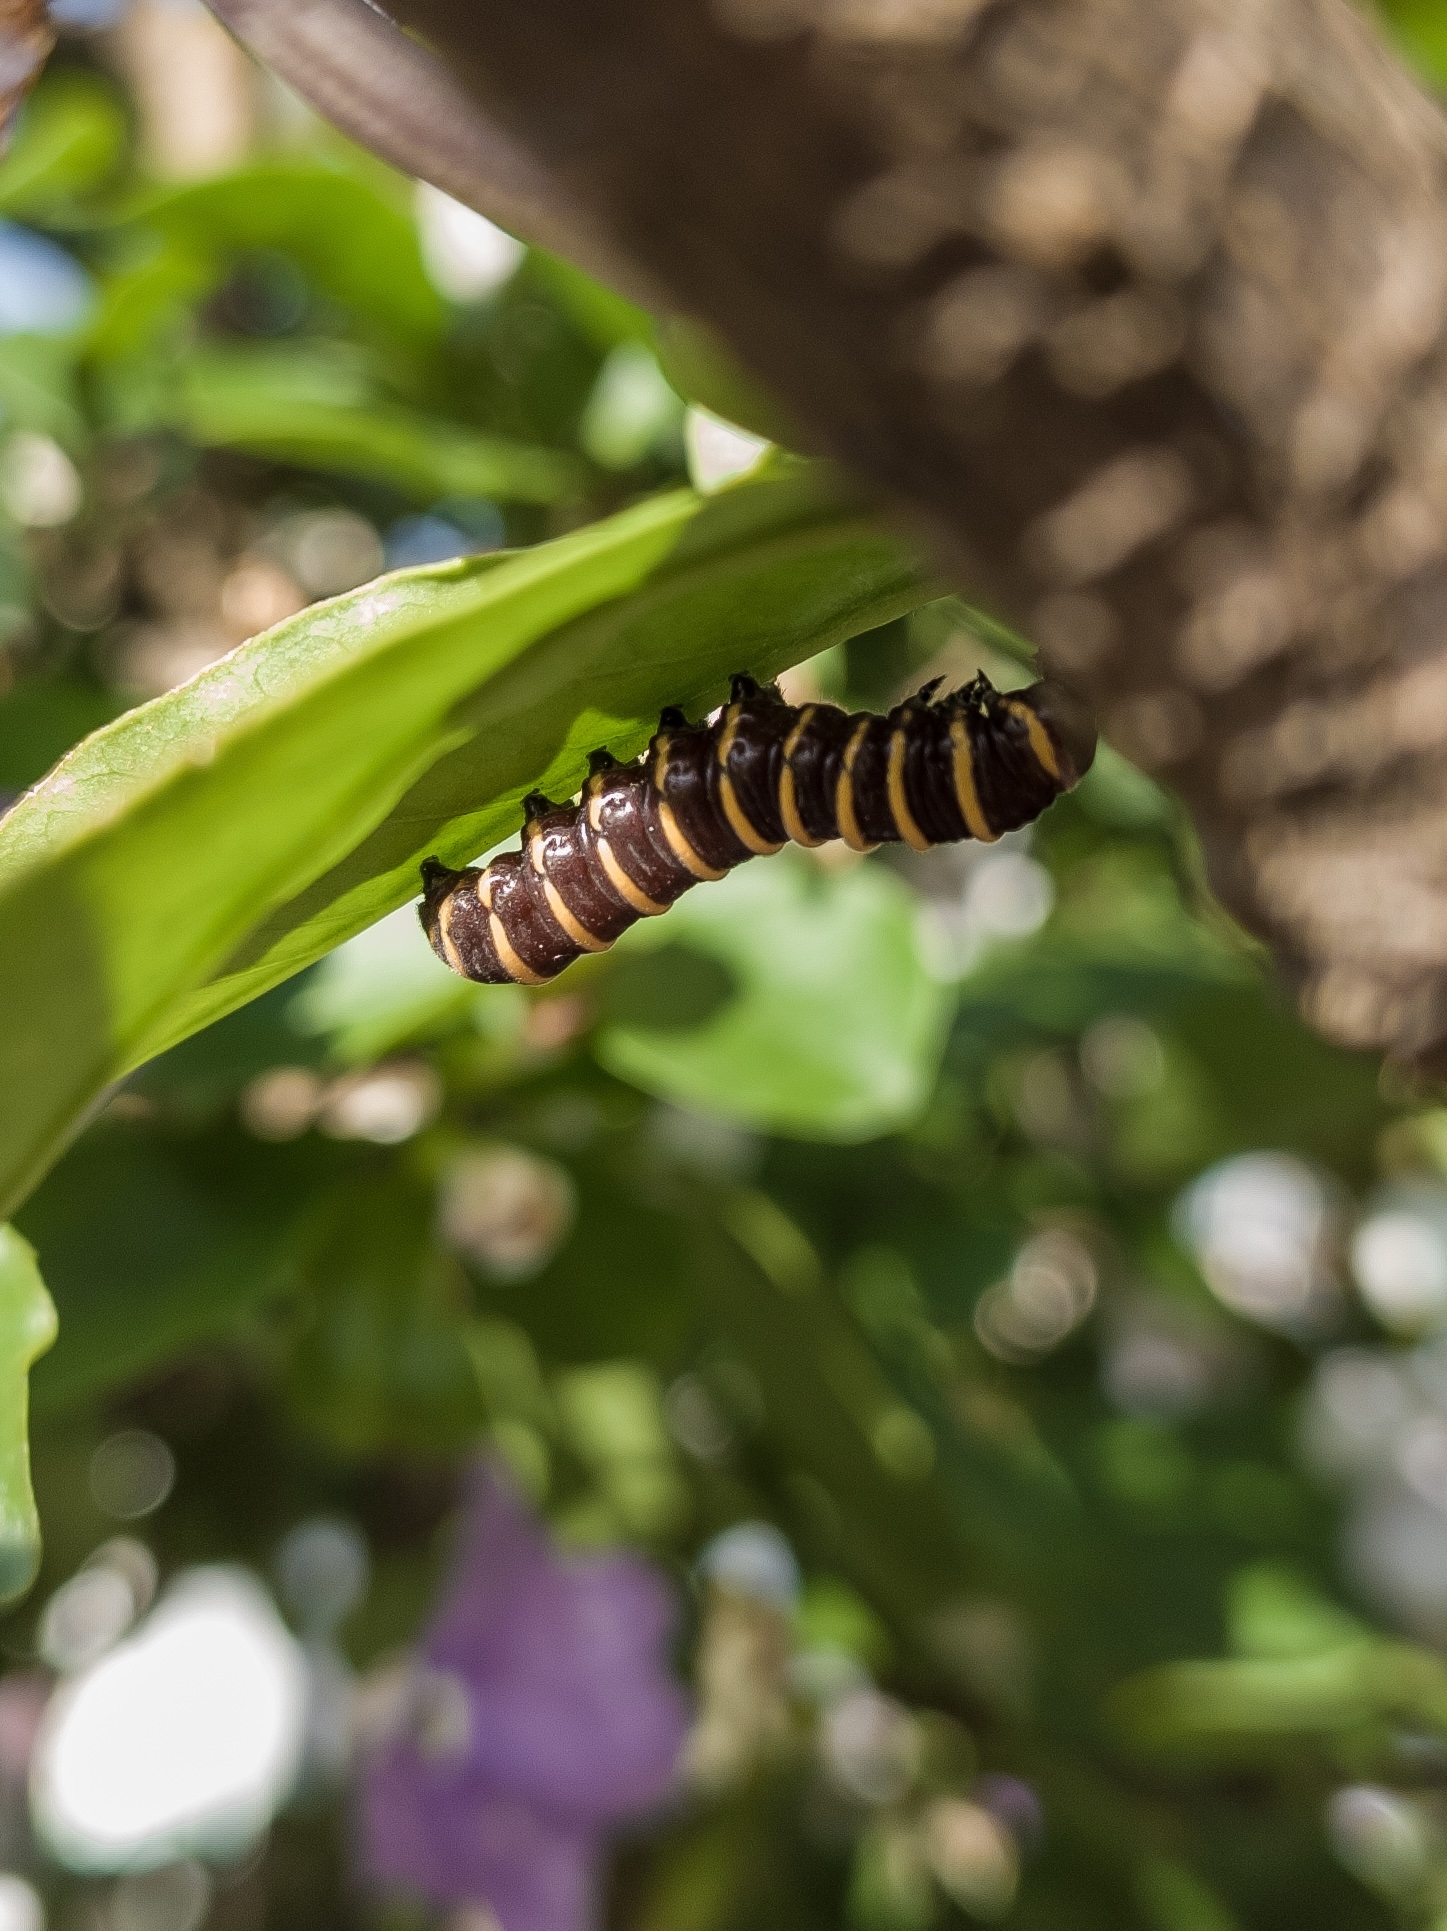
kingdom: Animalia
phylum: Arthropoda
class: Insecta
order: Lepidoptera
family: Nymphalidae
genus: Methona
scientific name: Methona themisto
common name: Themisto amberwing
